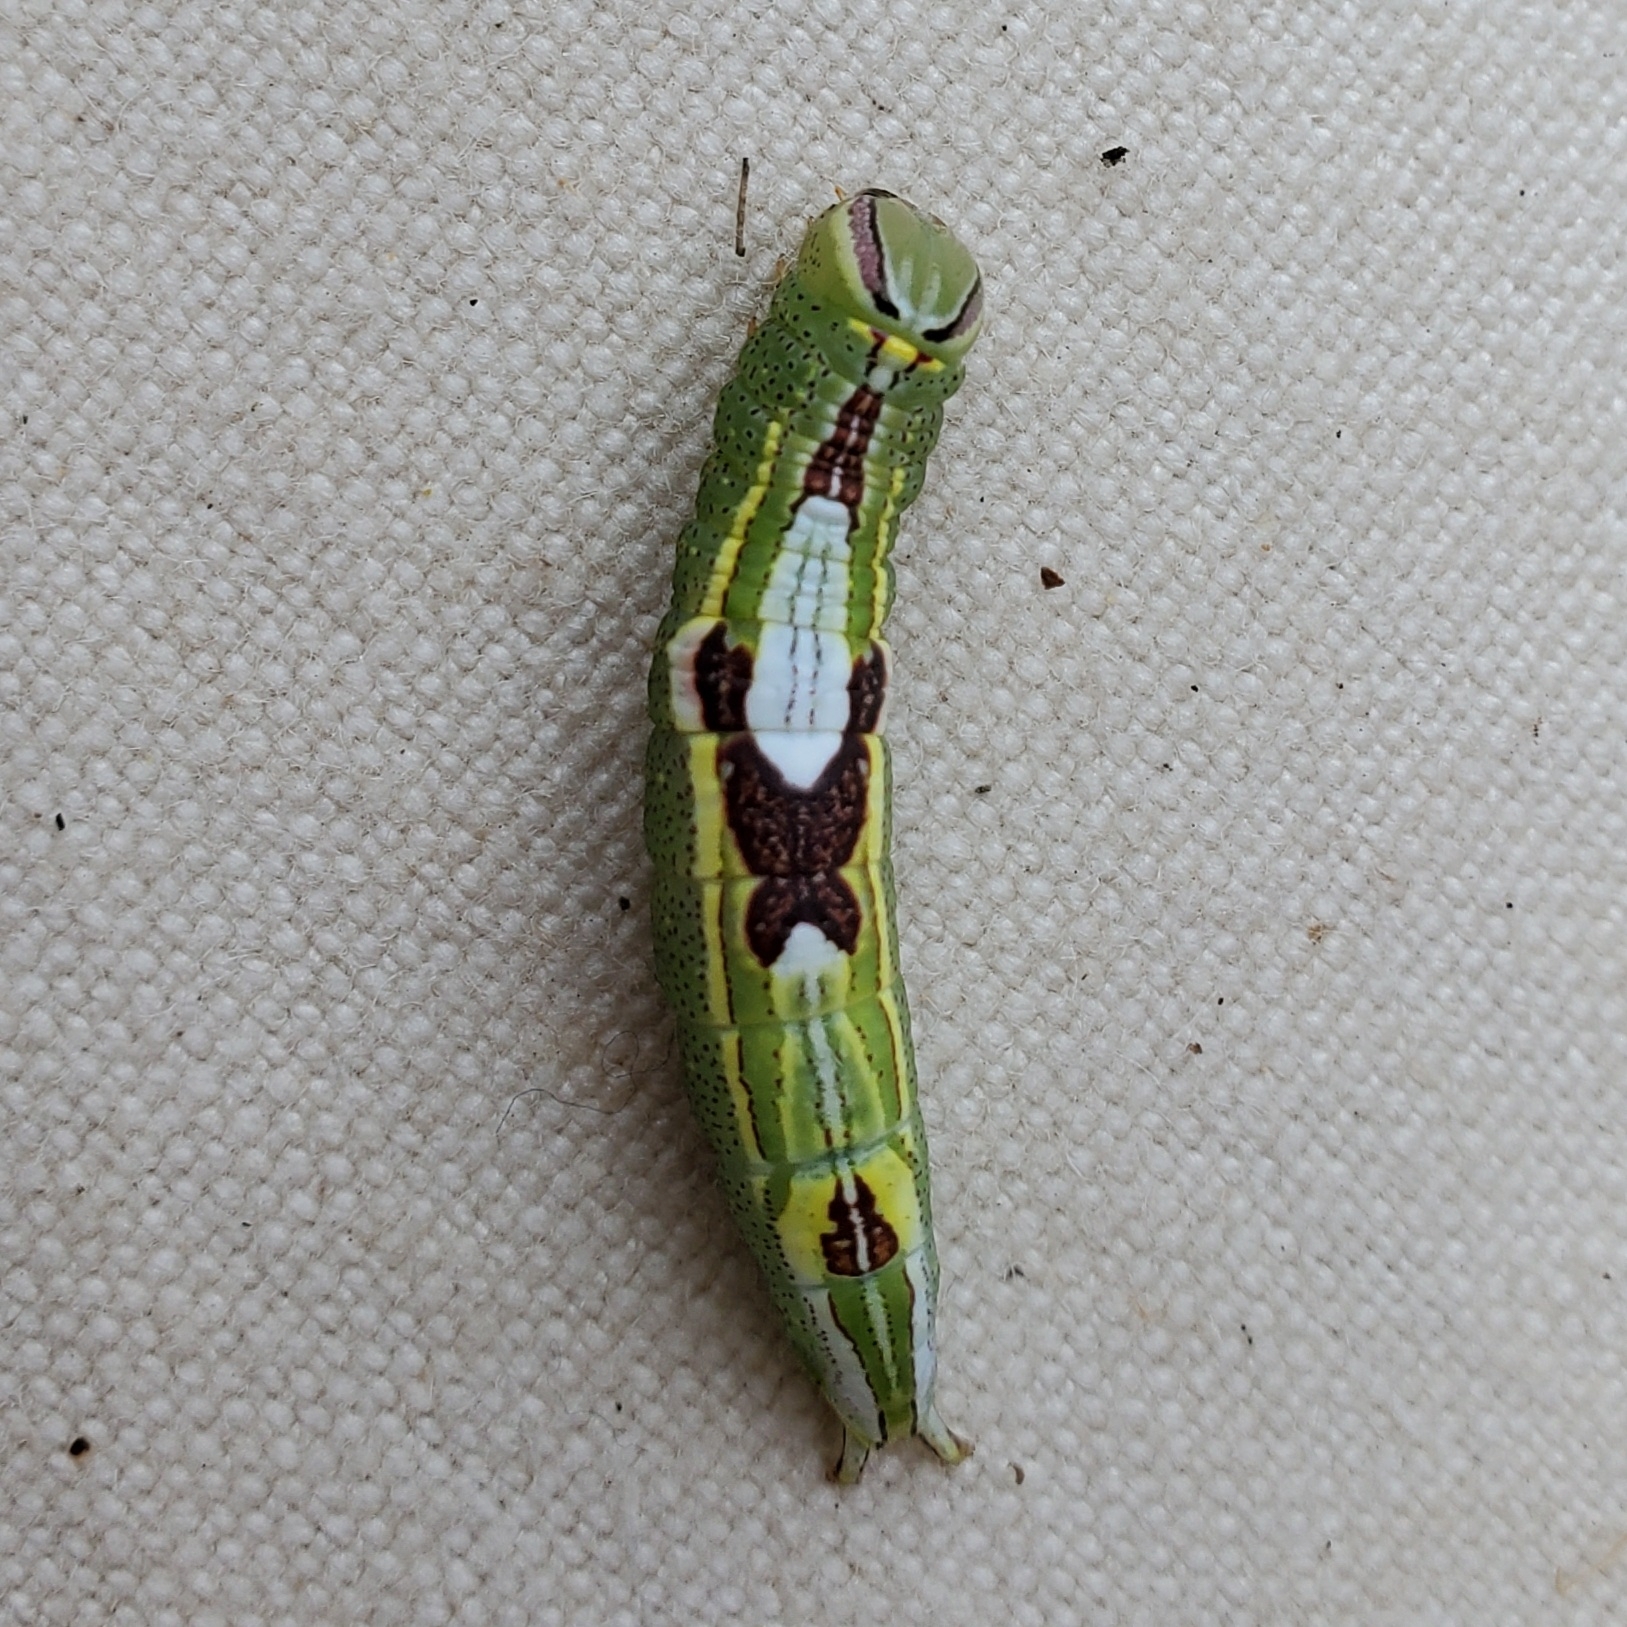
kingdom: Animalia
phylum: Arthropoda
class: Insecta
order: Lepidoptera
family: Notodontidae
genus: Disphragis
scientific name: Disphragis Cecrita guttivitta
